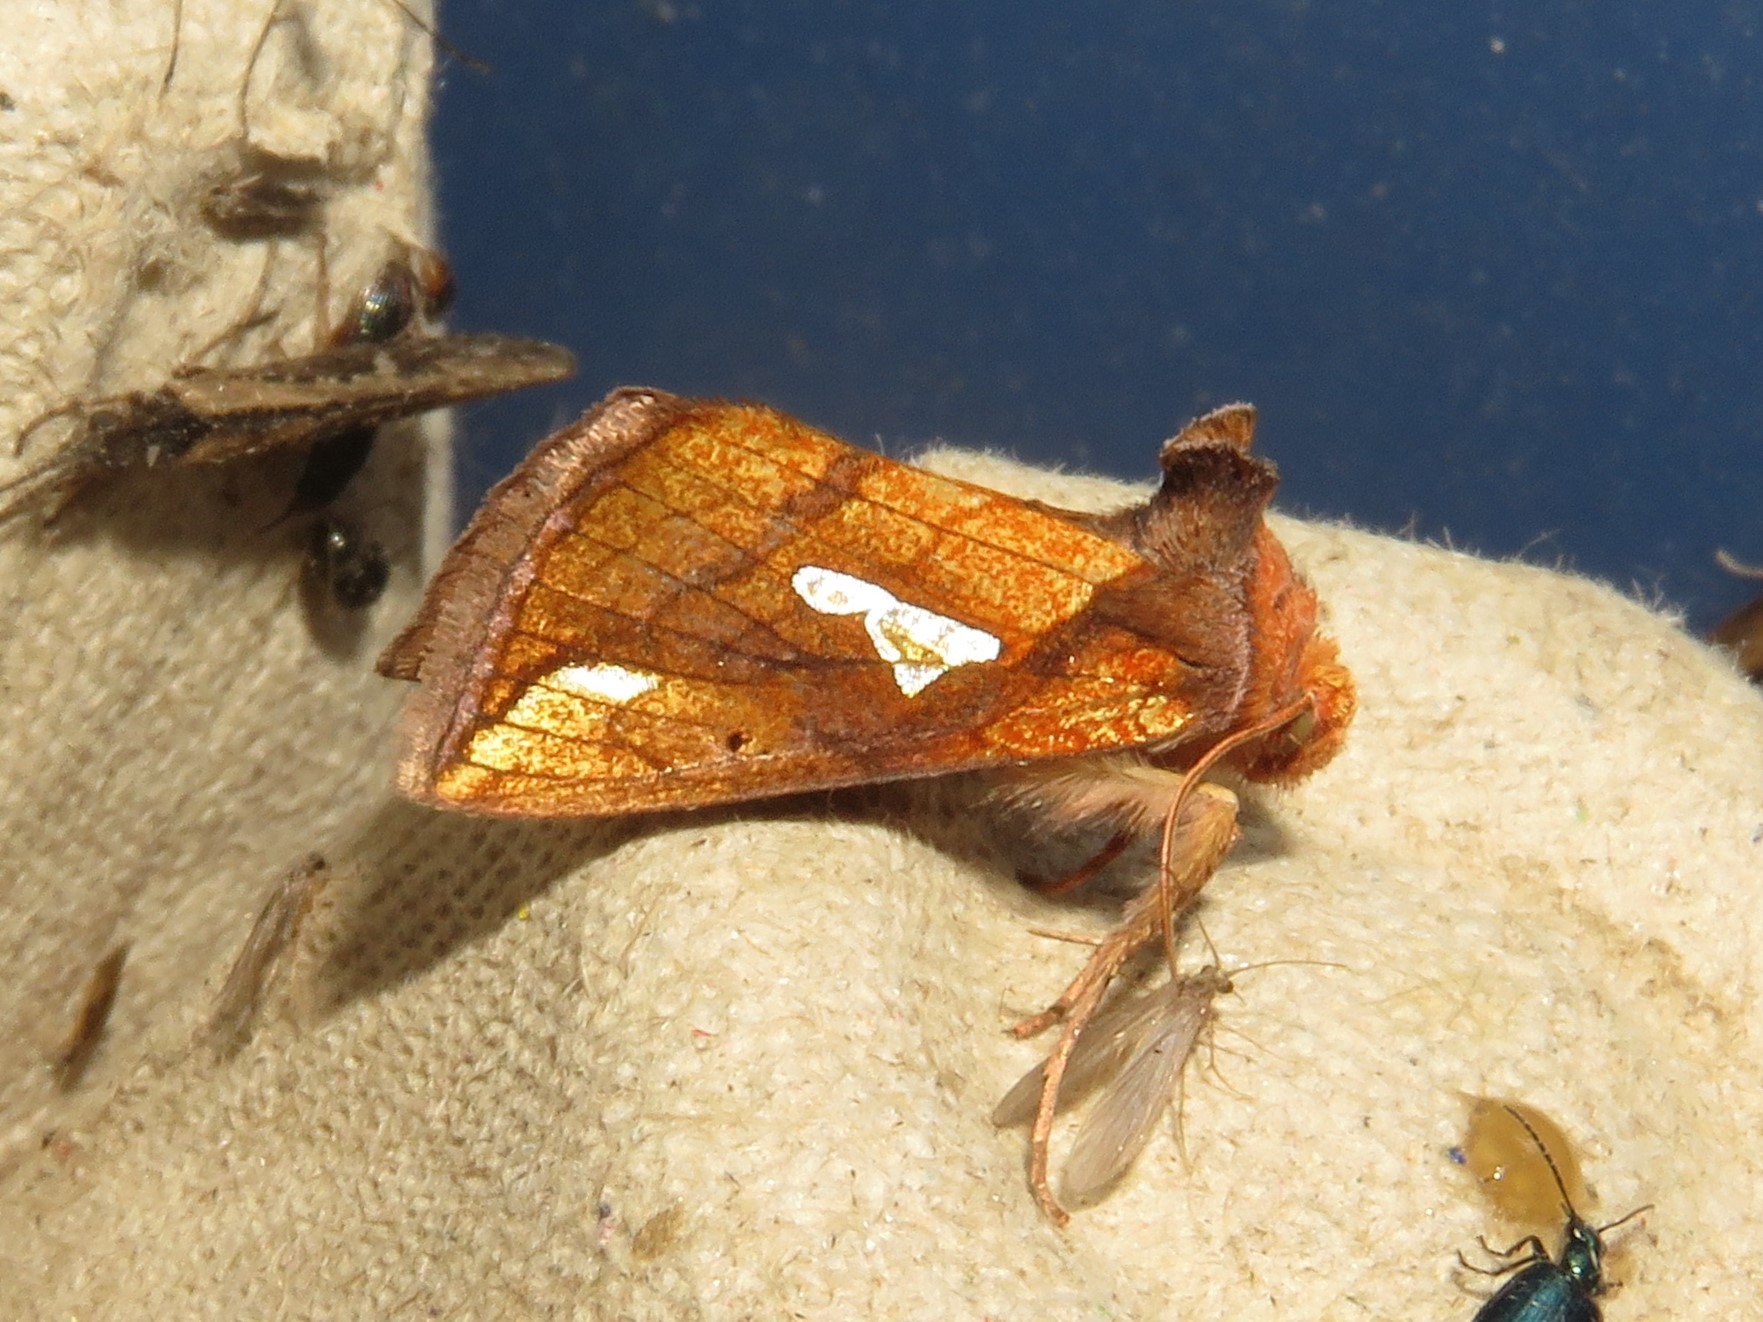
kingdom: Animalia
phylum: Arthropoda
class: Insecta
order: Lepidoptera
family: Noctuidae
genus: Plusia
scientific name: Plusia putnami
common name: Lempke's gold spot
